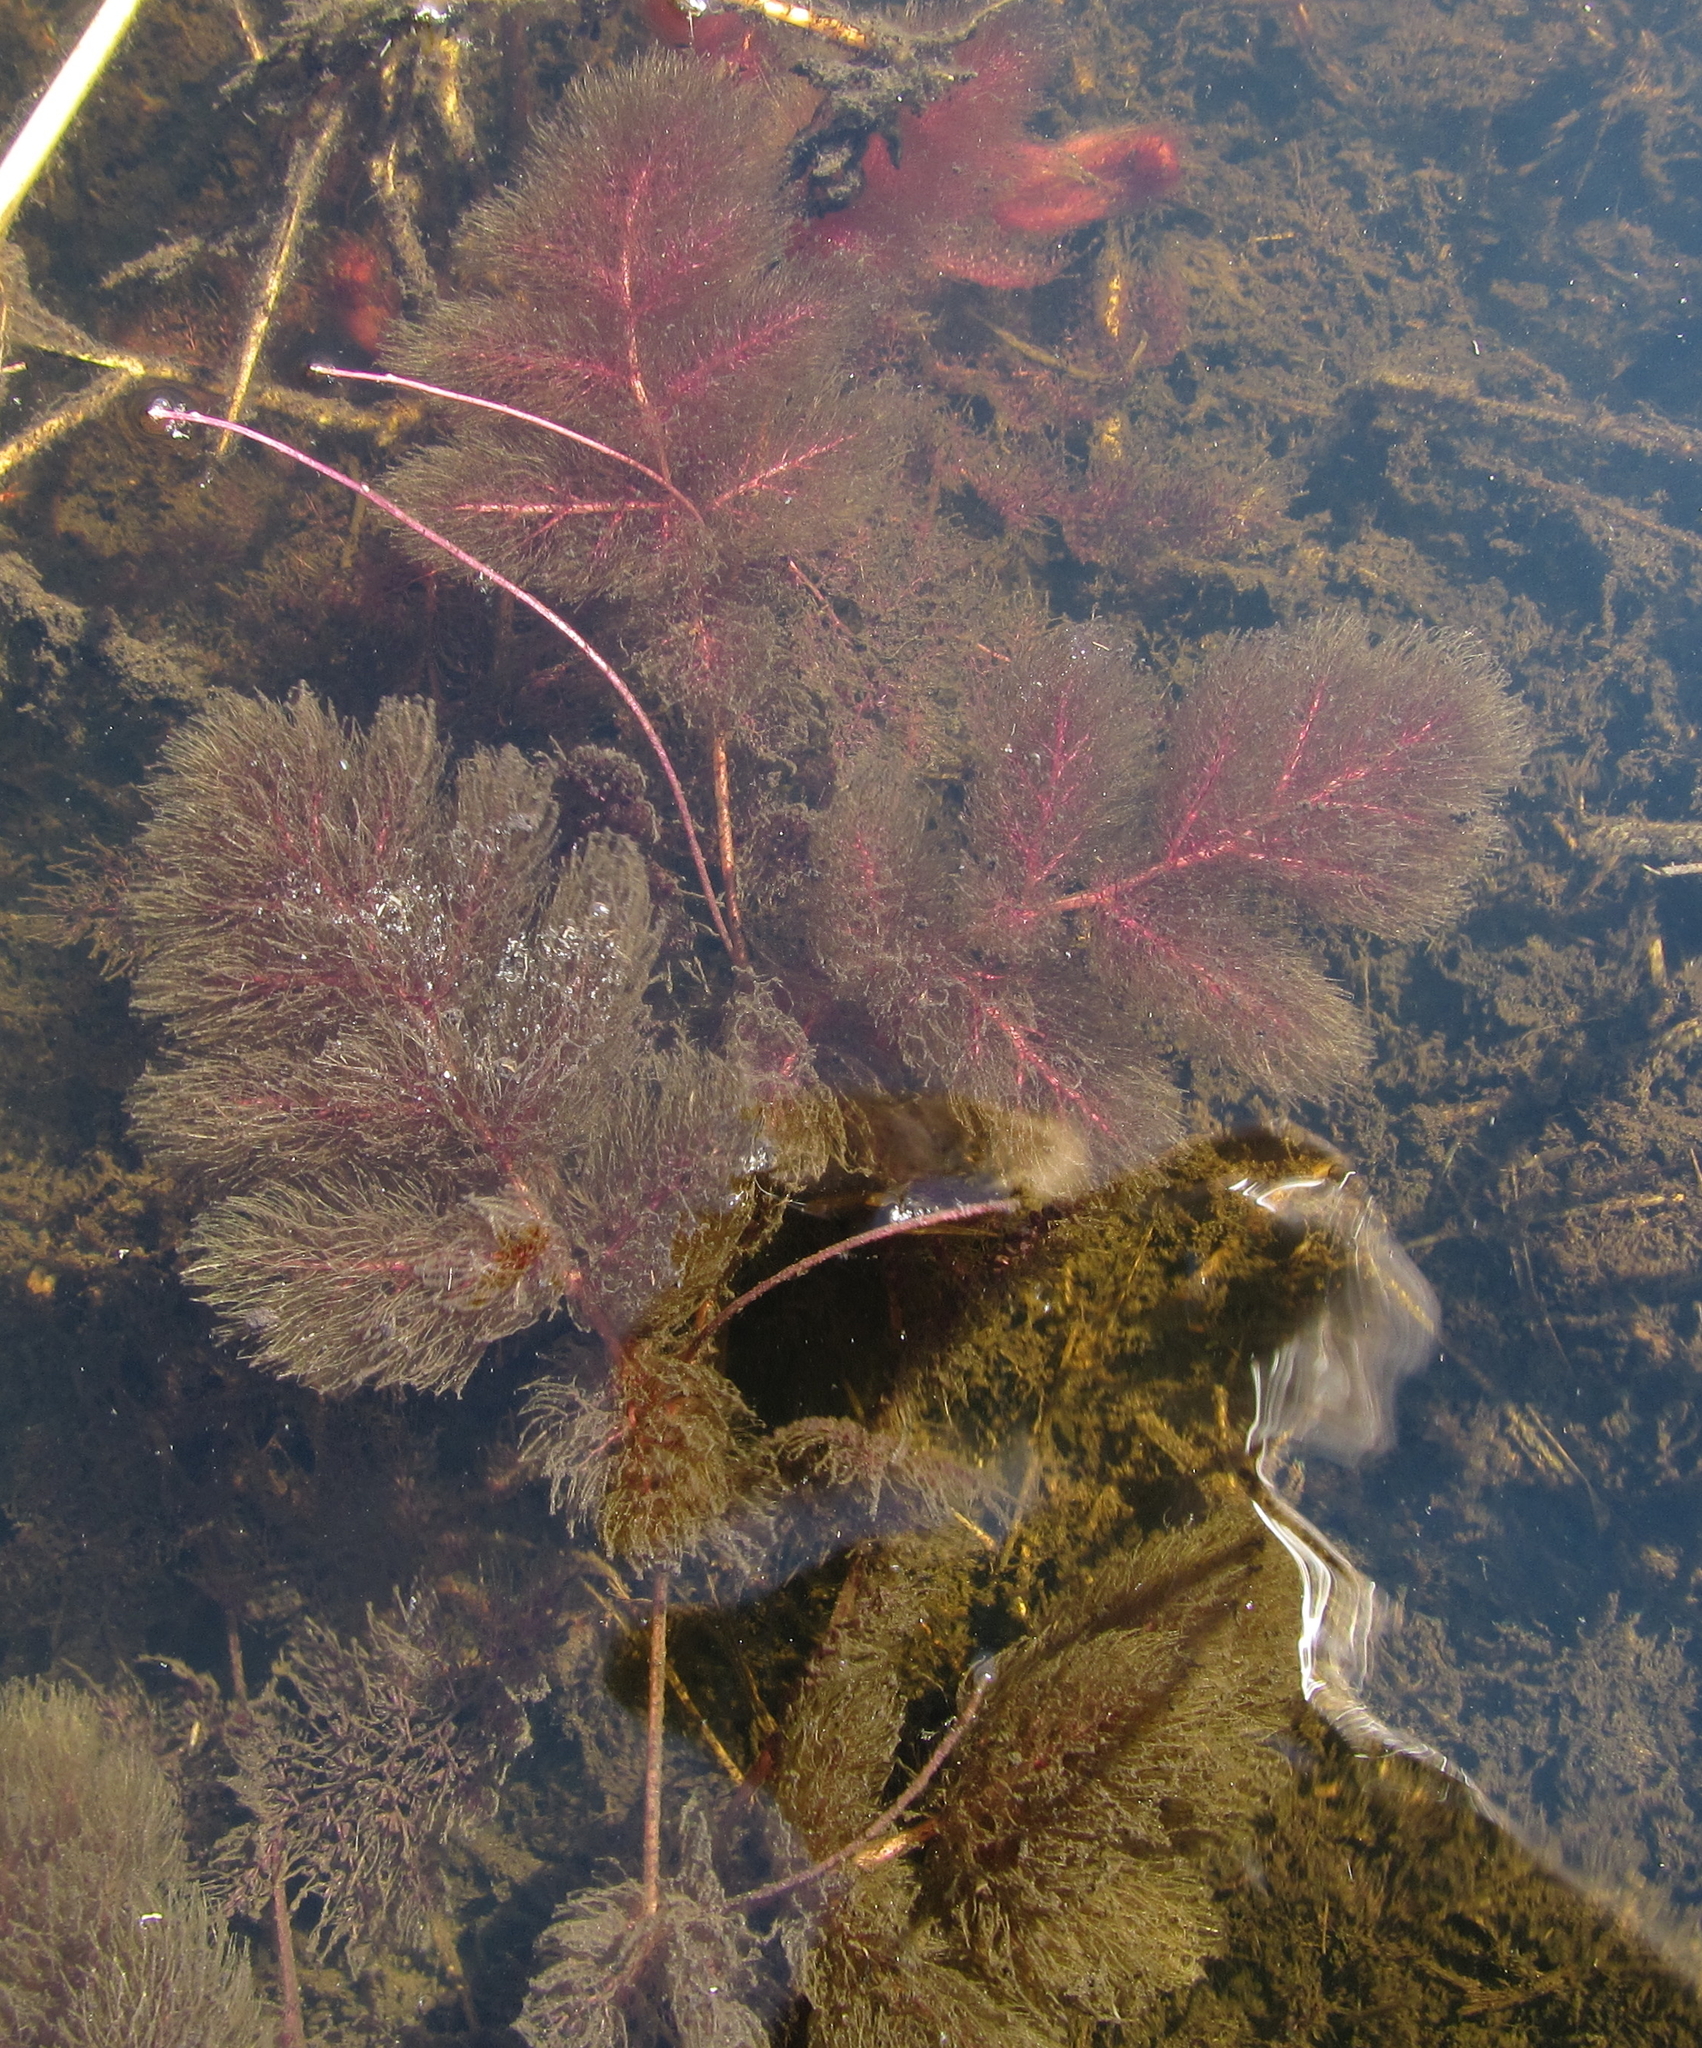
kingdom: Plantae
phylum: Tracheophyta
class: Magnoliopsida
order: Lamiales
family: Lentibulariaceae
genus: Utricularia
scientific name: Utricularia foliosa
